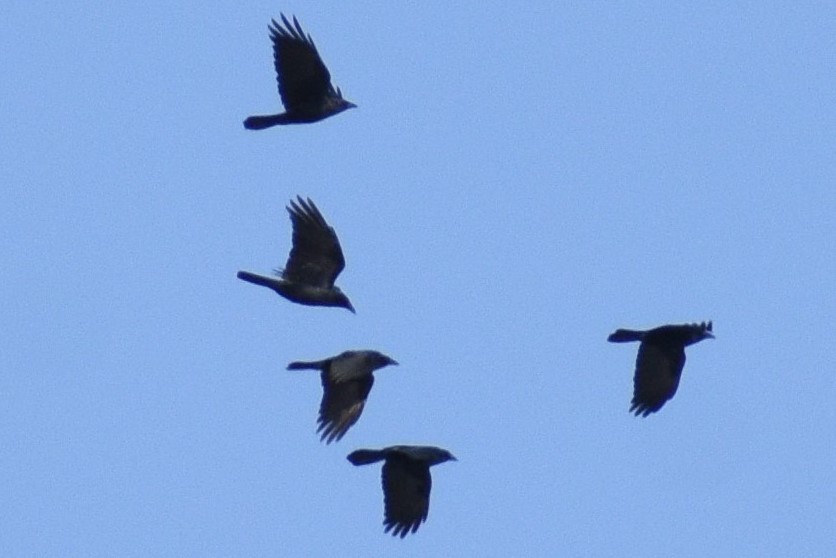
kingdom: Animalia
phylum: Chordata
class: Aves
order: Passeriformes
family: Corvidae
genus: Corvus
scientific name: Corvus ossifragus
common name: Fish crow
